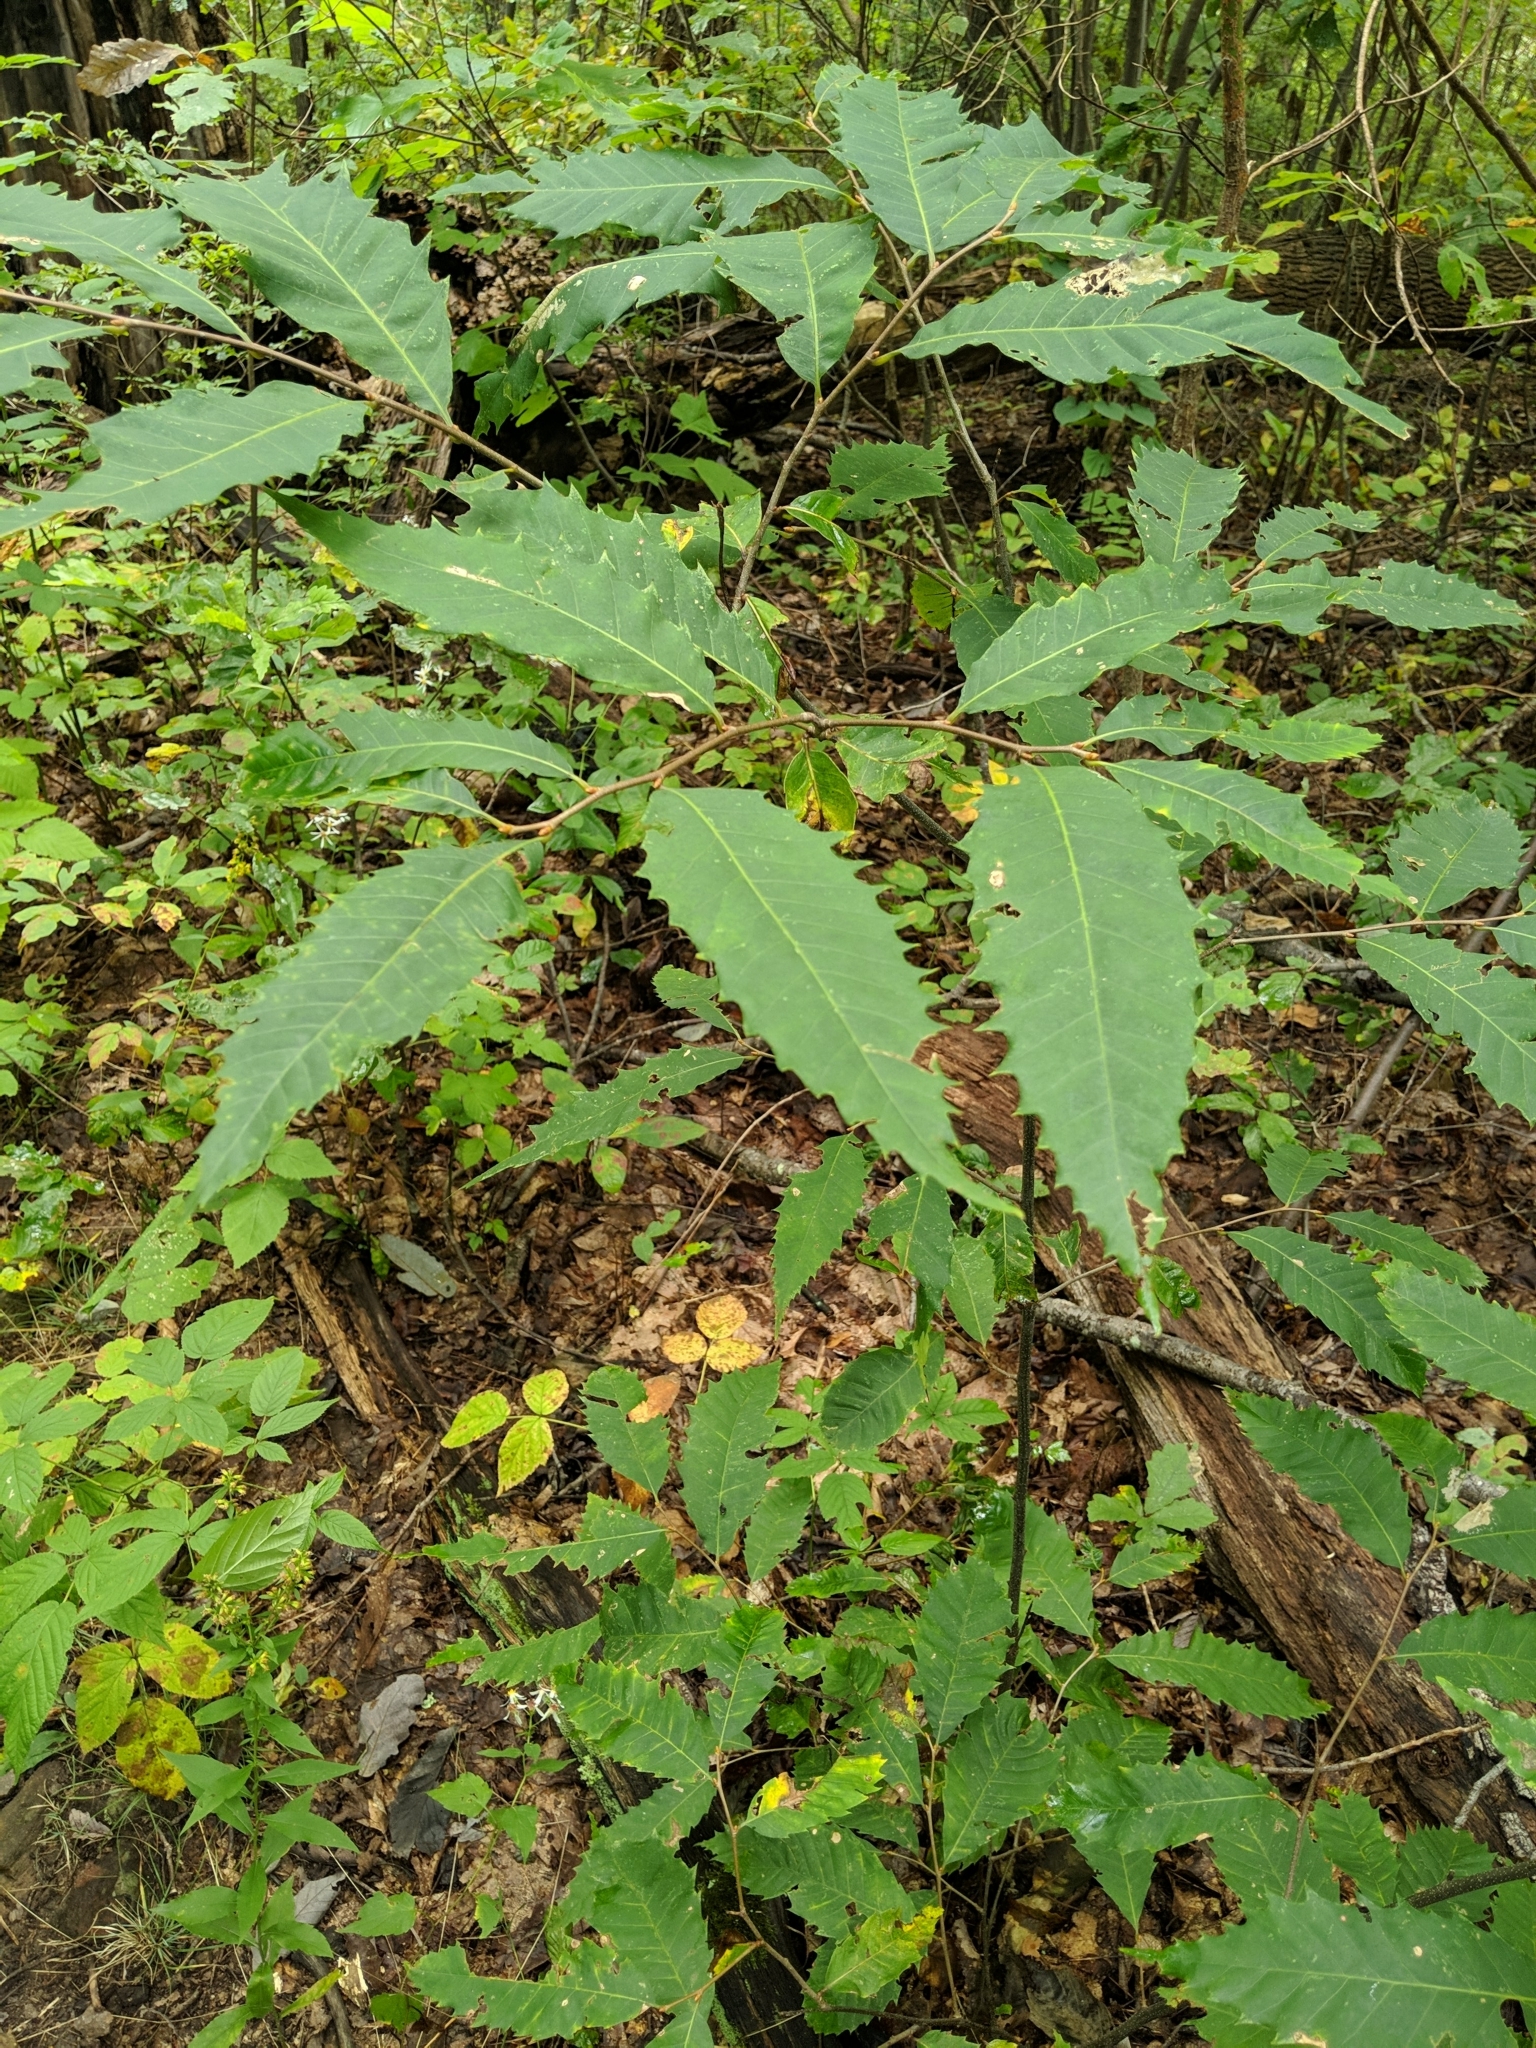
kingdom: Plantae
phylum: Tracheophyta
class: Magnoliopsida
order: Fagales
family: Fagaceae
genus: Castanea
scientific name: Castanea dentata
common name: American chestnut
